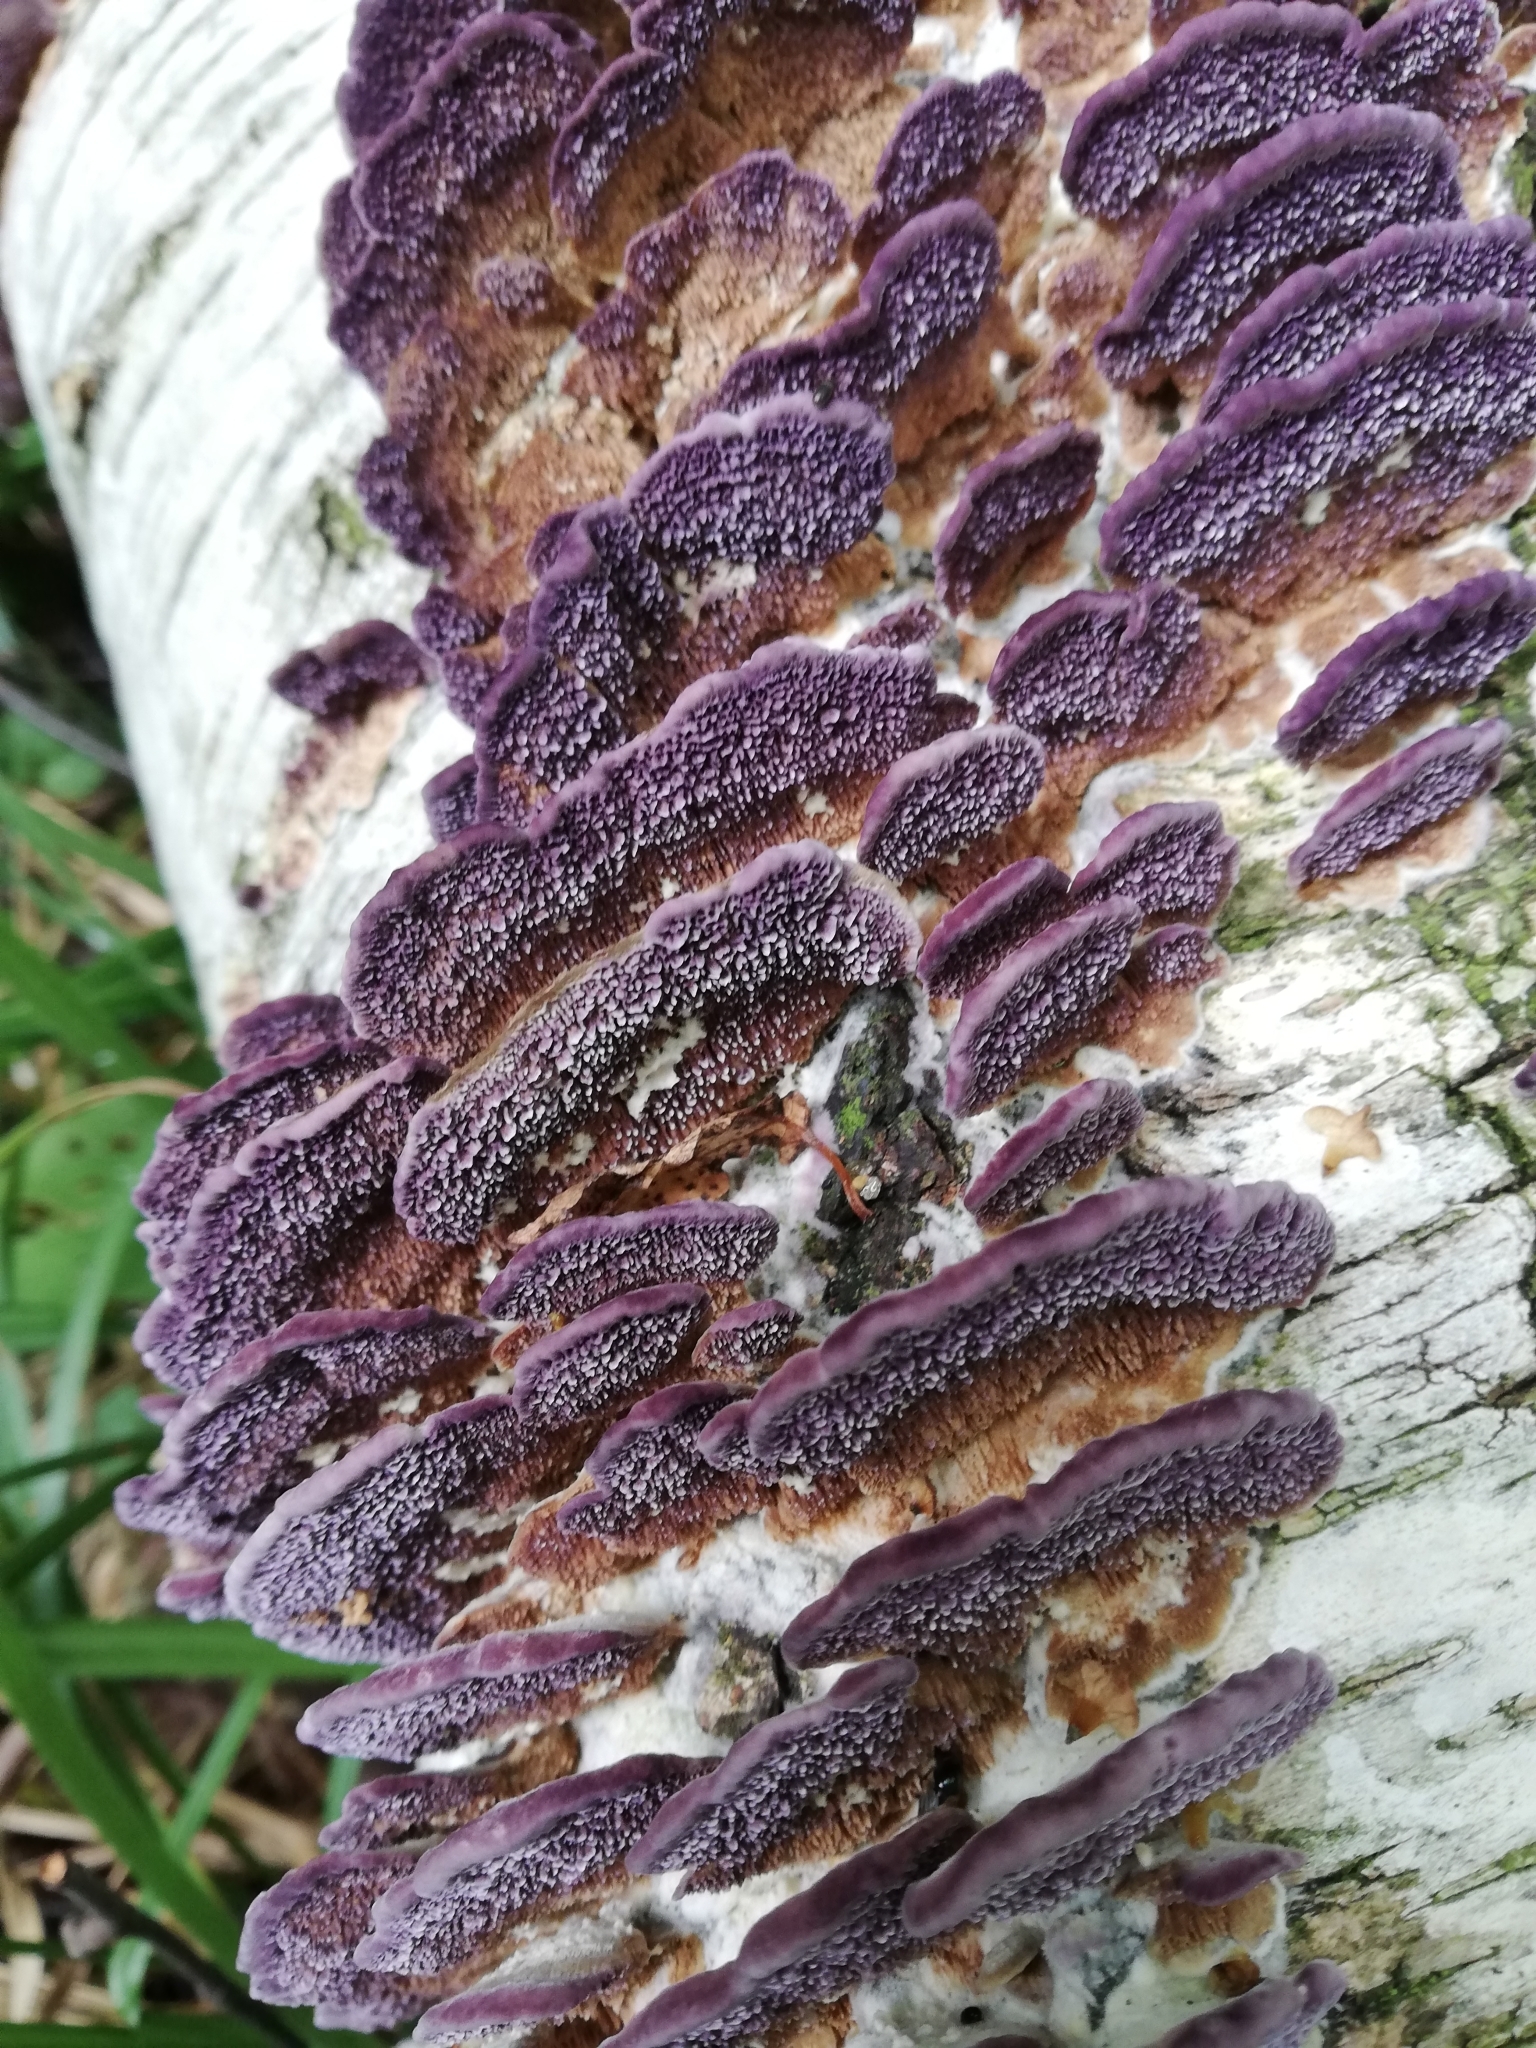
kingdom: Fungi
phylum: Basidiomycota
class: Agaricomycetes
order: Hymenochaetales
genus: Trichaptum
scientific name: Trichaptum biforme
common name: Violet-toothed polypore
